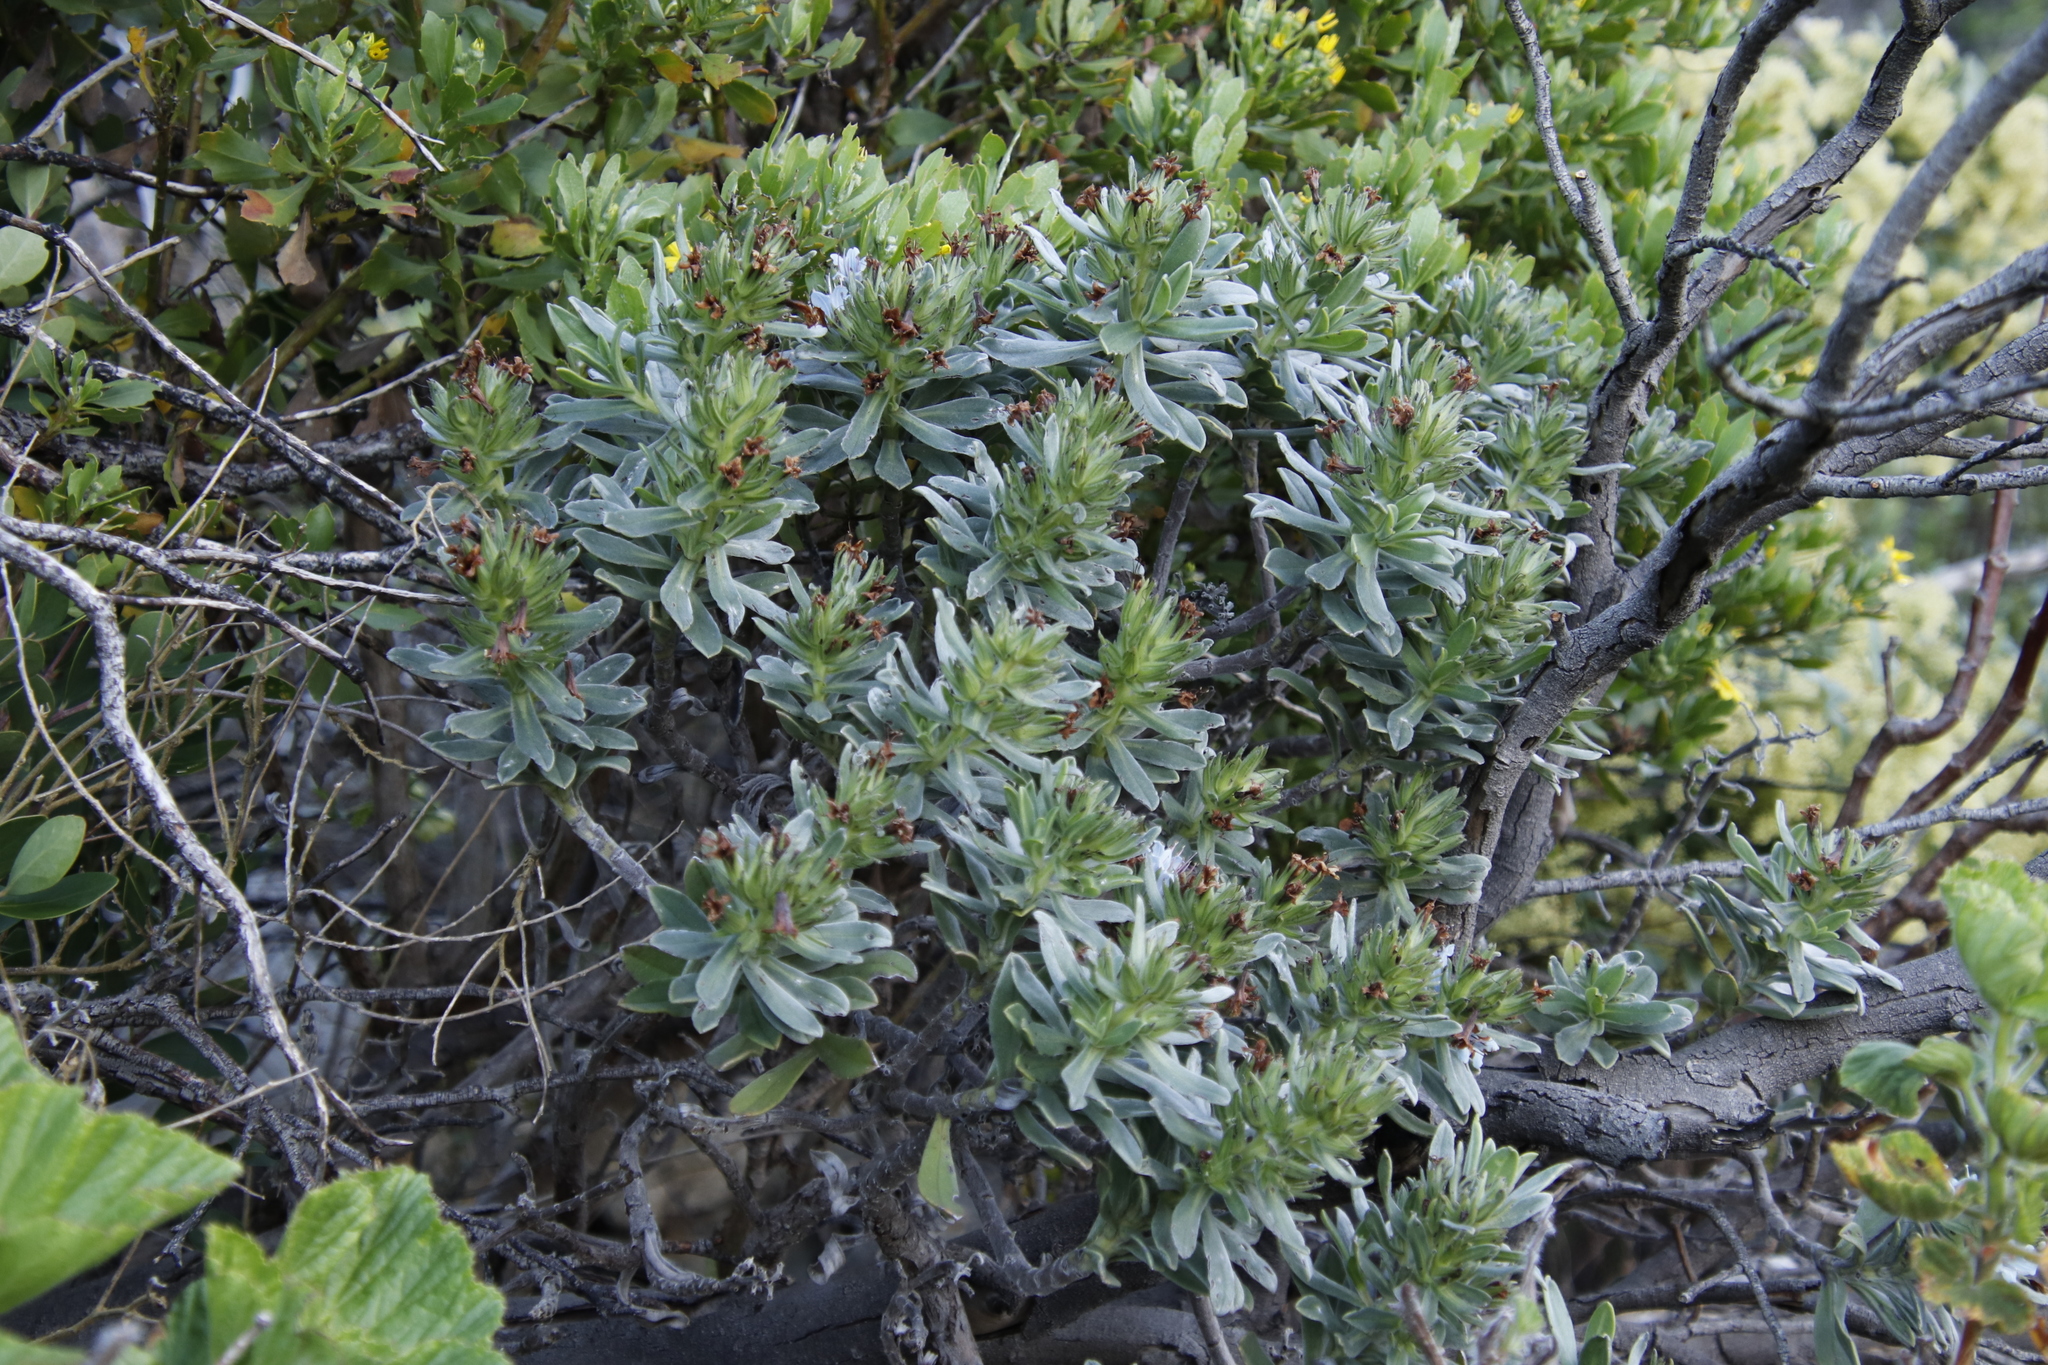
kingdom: Plantae
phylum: Tracheophyta
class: Magnoliopsida
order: Boraginales
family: Boraginaceae
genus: Lobostemon
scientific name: Lobostemon montanus
